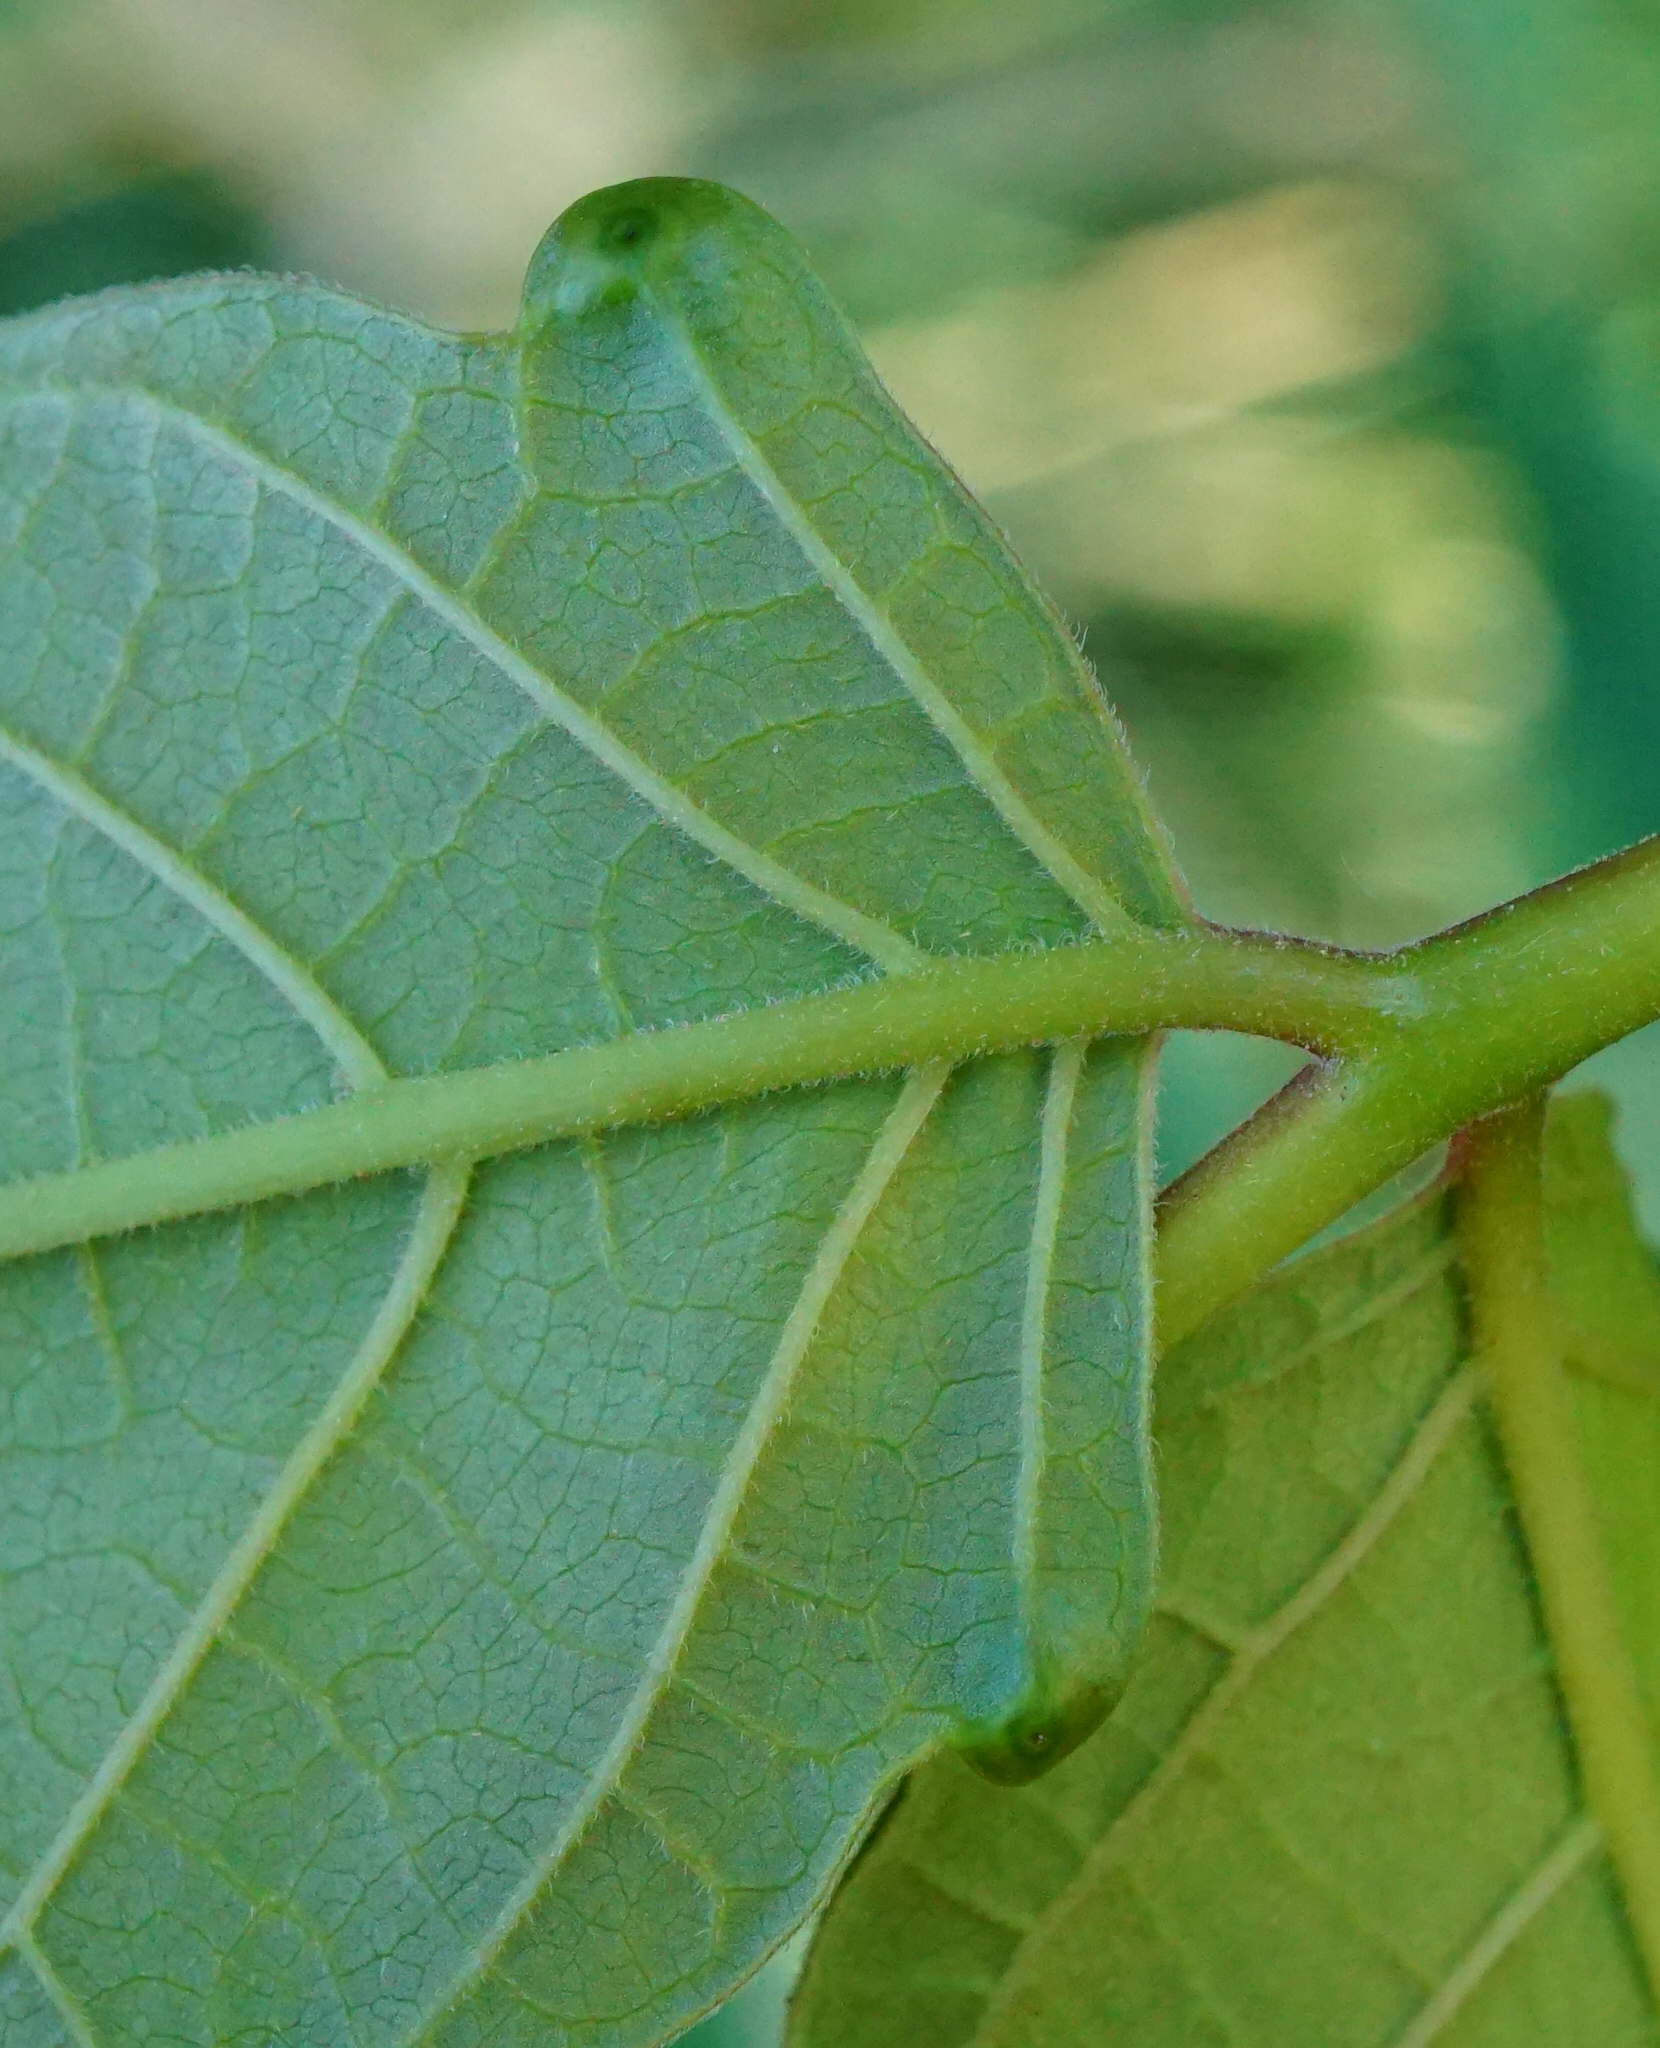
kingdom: Plantae
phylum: Tracheophyta
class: Magnoliopsida
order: Sapindales
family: Simaroubaceae
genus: Ailanthus
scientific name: Ailanthus altissima
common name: Tree-of-heaven
